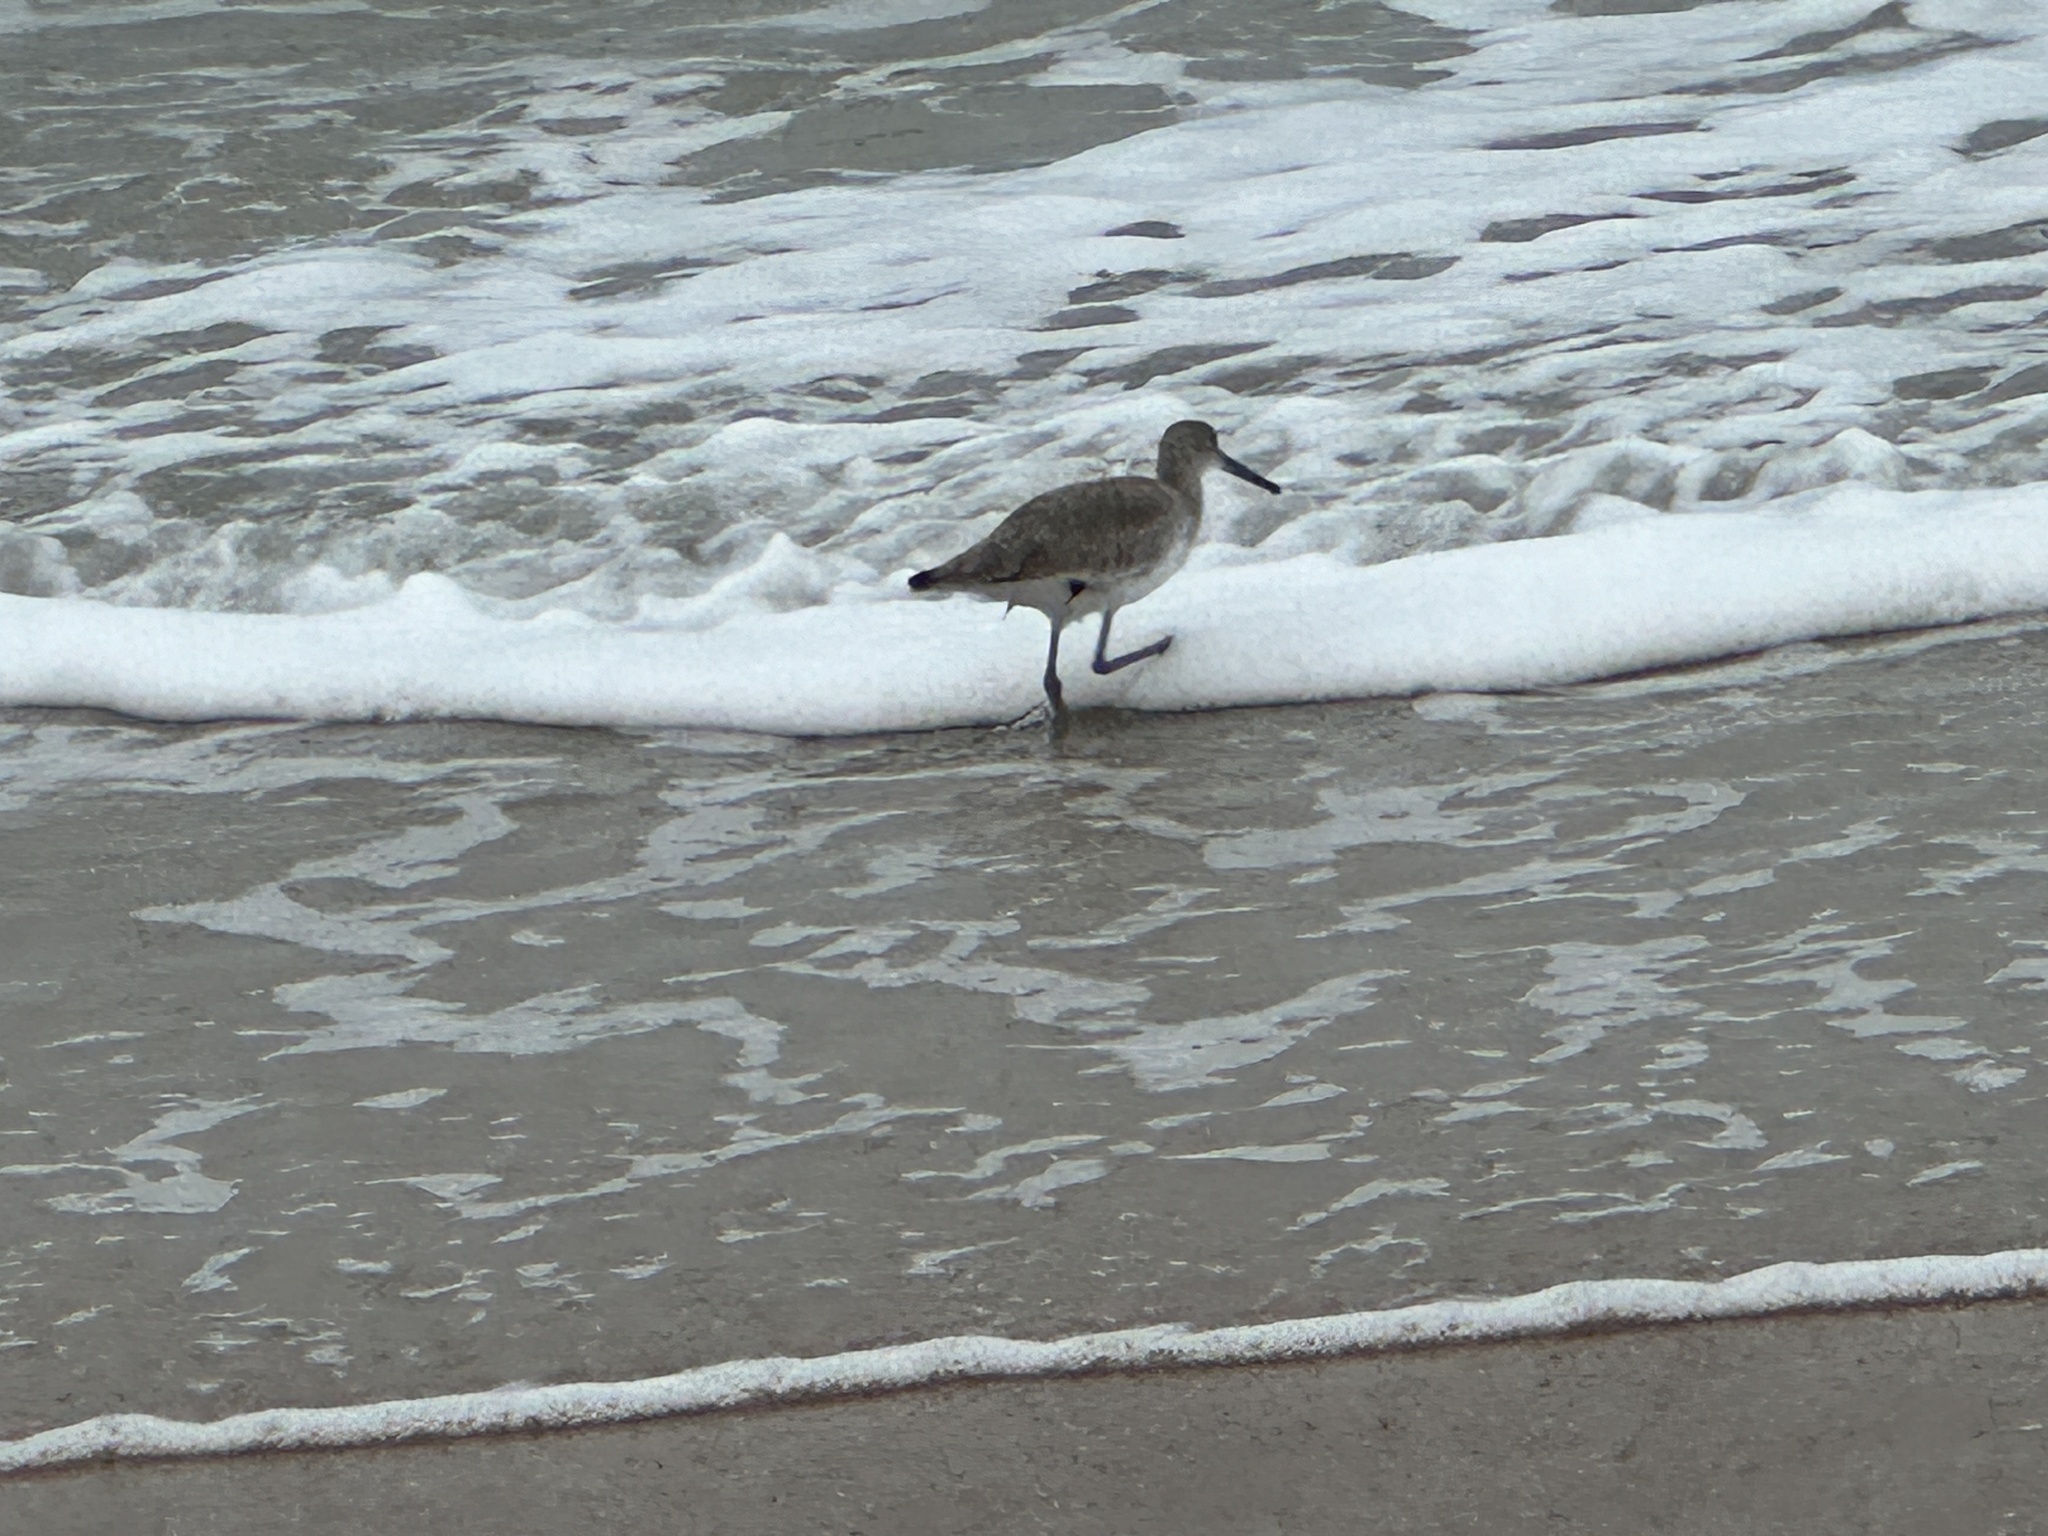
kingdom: Animalia
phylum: Chordata
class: Aves
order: Charadriiformes
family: Scolopacidae
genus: Tringa
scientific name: Tringa semipalmata
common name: Willet
